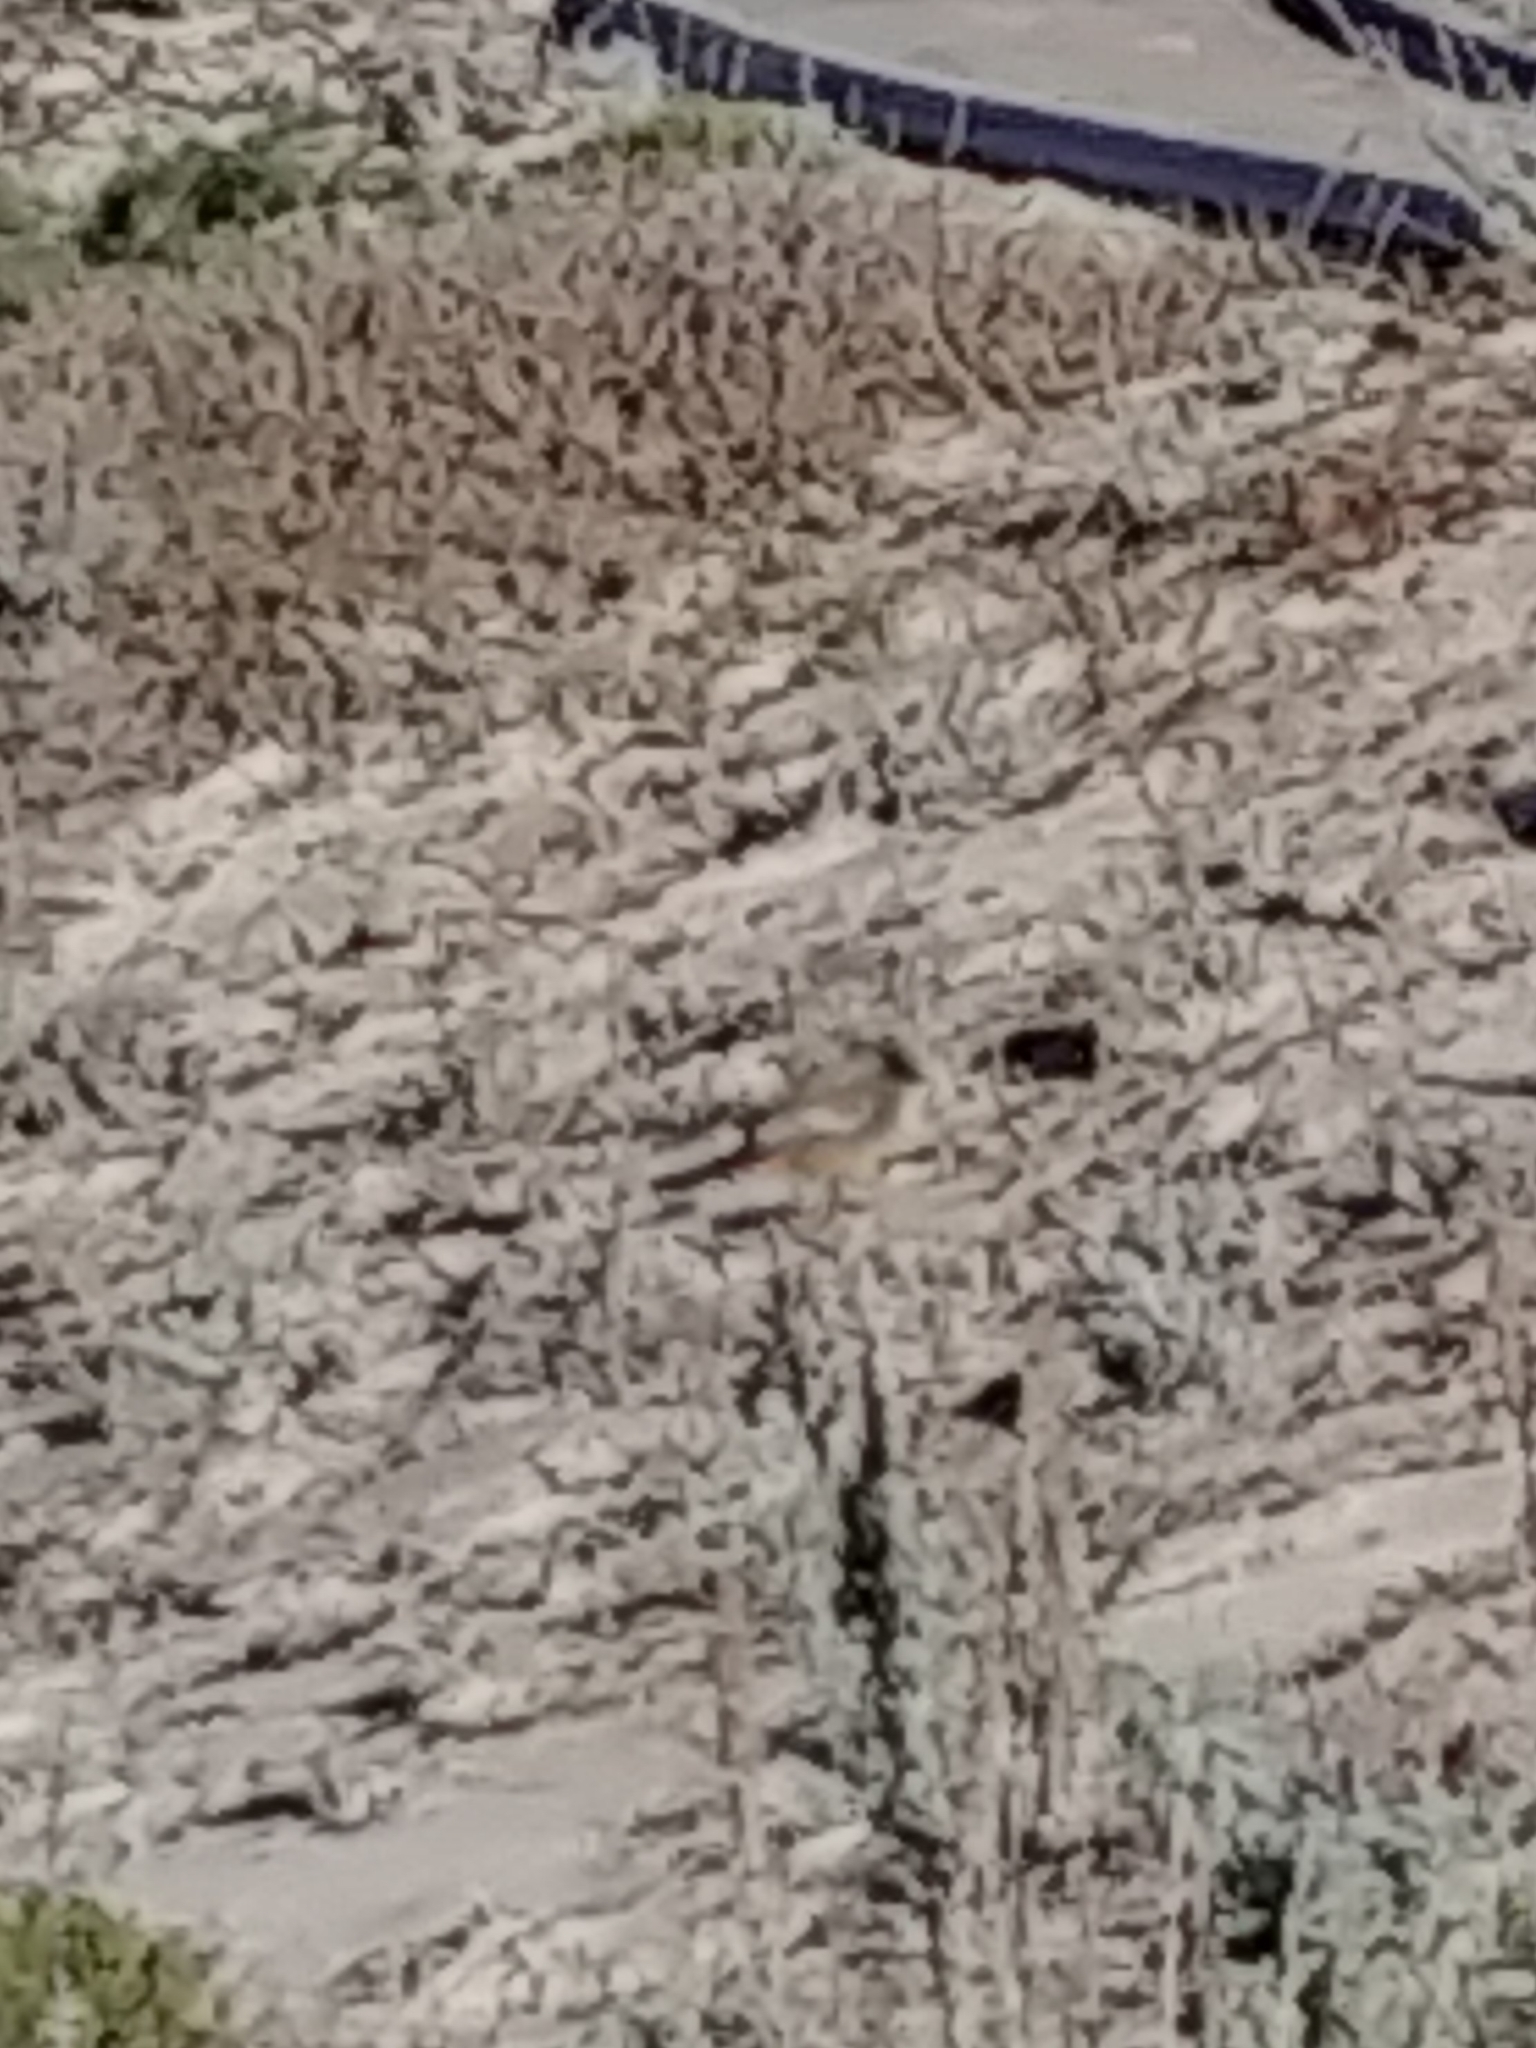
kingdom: Animalia
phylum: Chordata
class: Aves
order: Passeriformes
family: Tyrannidae
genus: Sayornis
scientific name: Sayornis saya
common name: Say's phoebe
